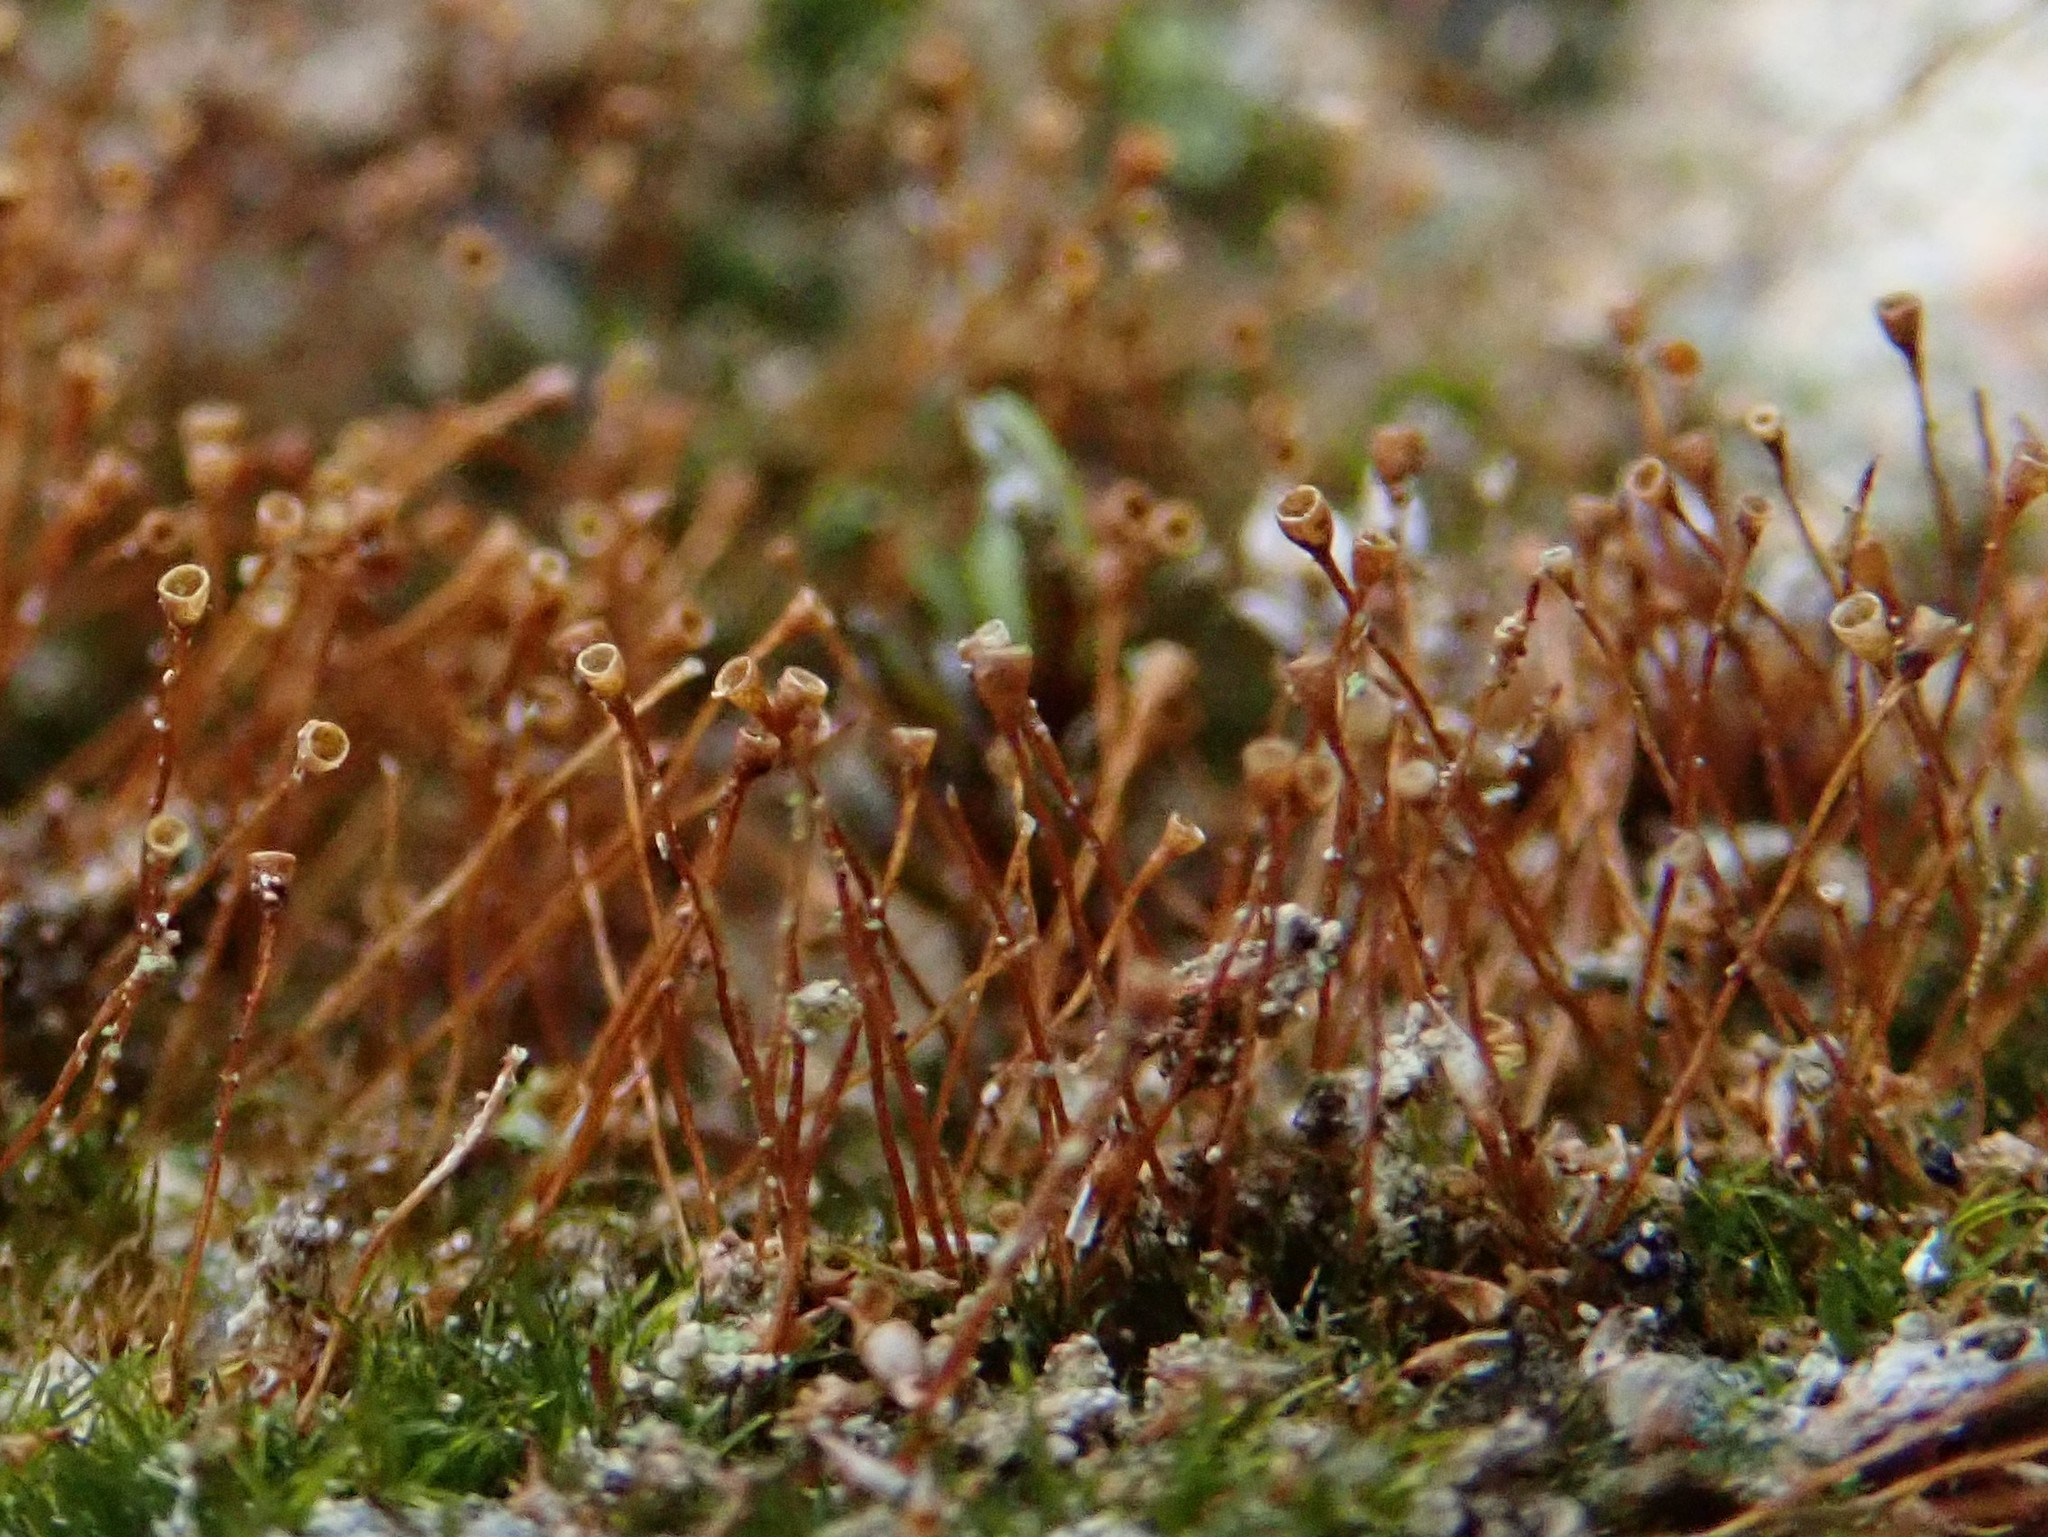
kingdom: Plantae
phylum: Bryophyta
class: Bryopsida
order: Grimmiales
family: Seligeriaceae
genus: Seligeria
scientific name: Seligeria donniana
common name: Donn's bristle moss
